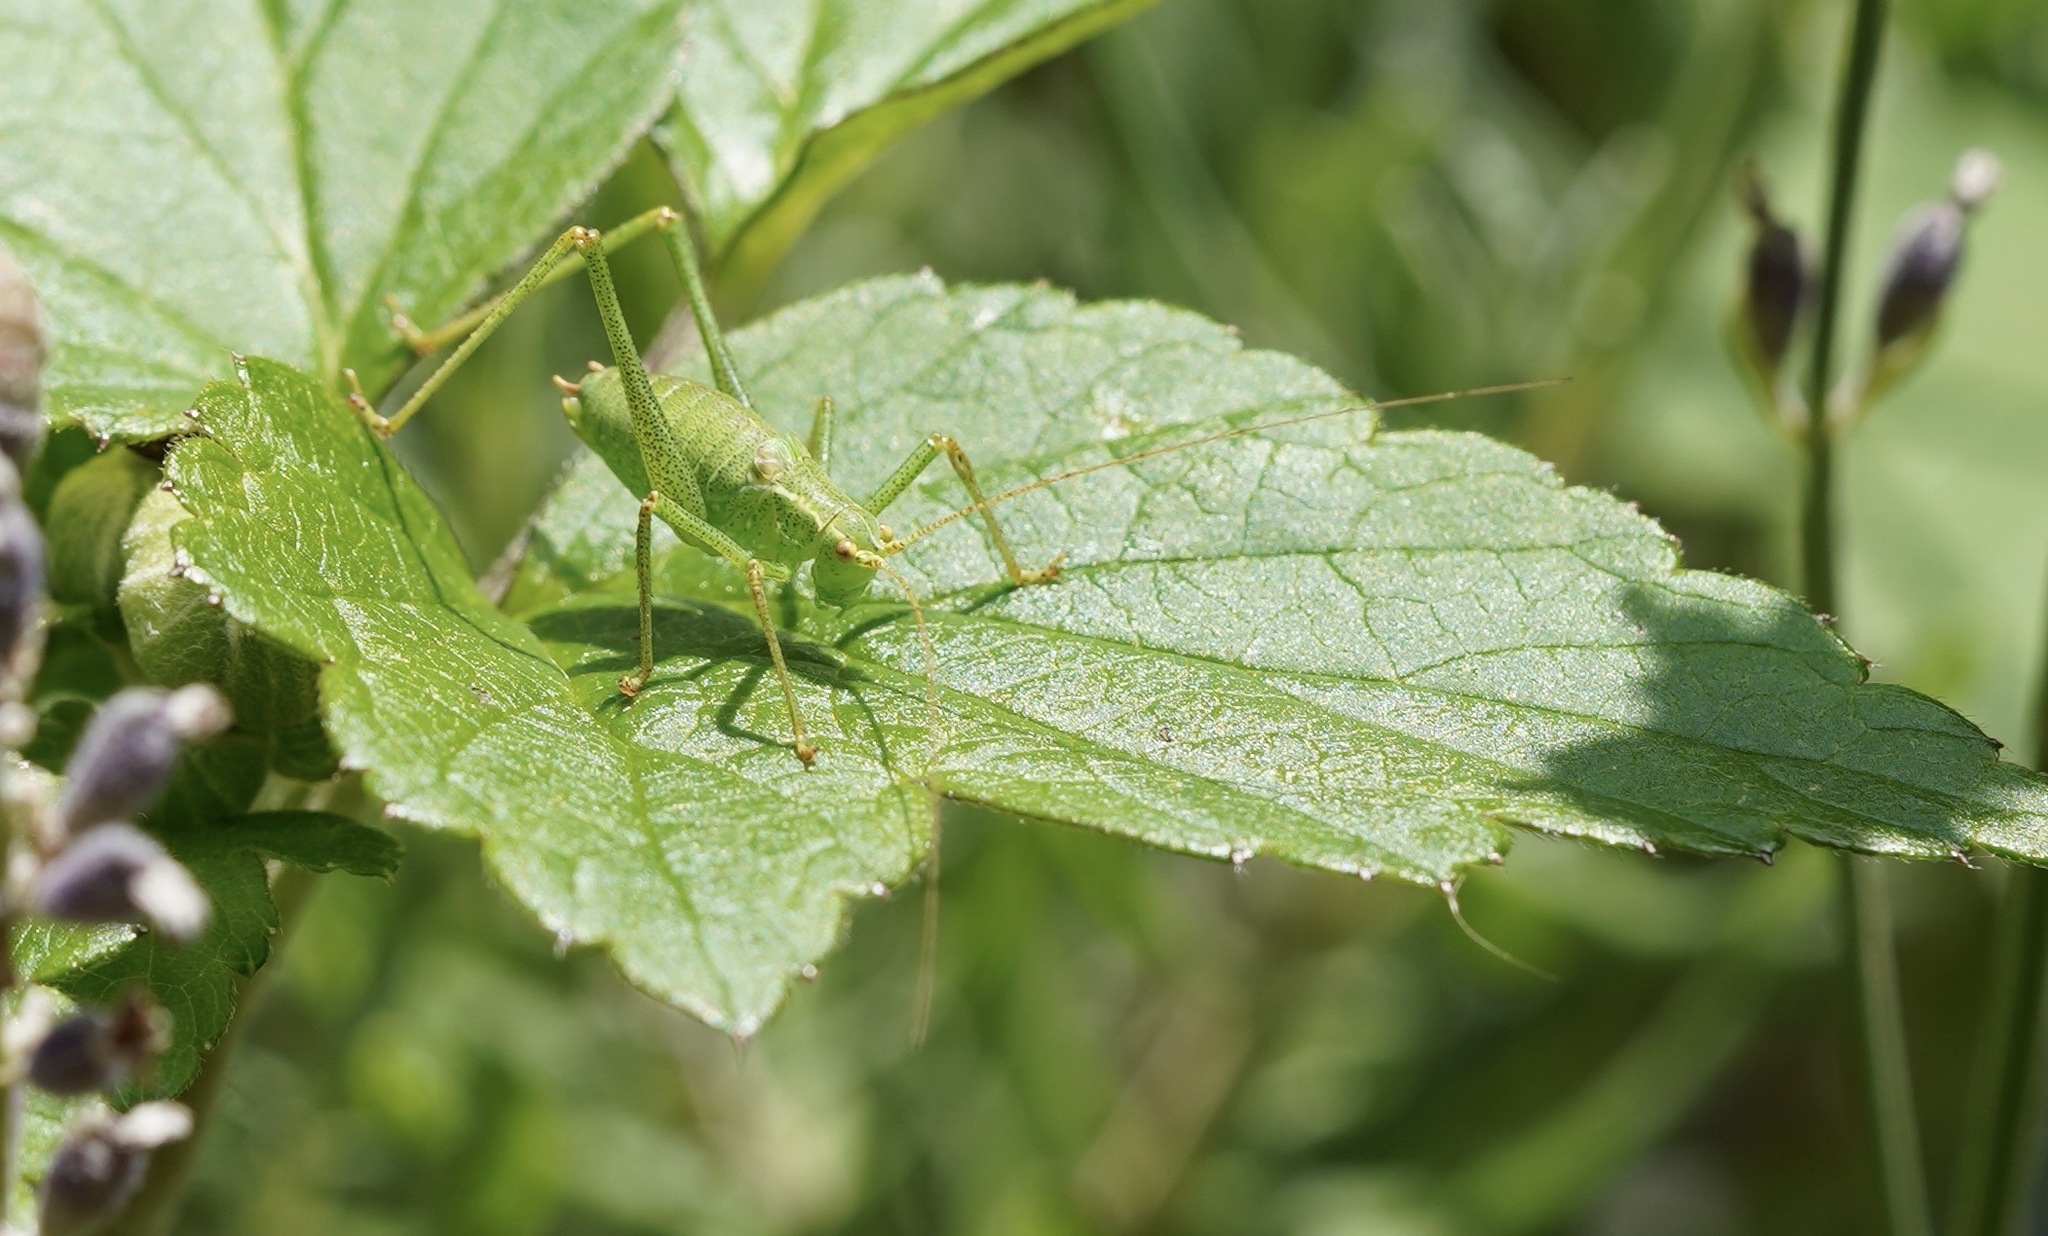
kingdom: Animalia
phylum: Arthropoda
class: Insecta
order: Orthoptera
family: Tettigoniidae
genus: Leptophyes
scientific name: Leptophyes punctatissima
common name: Speckled bush-cricket
